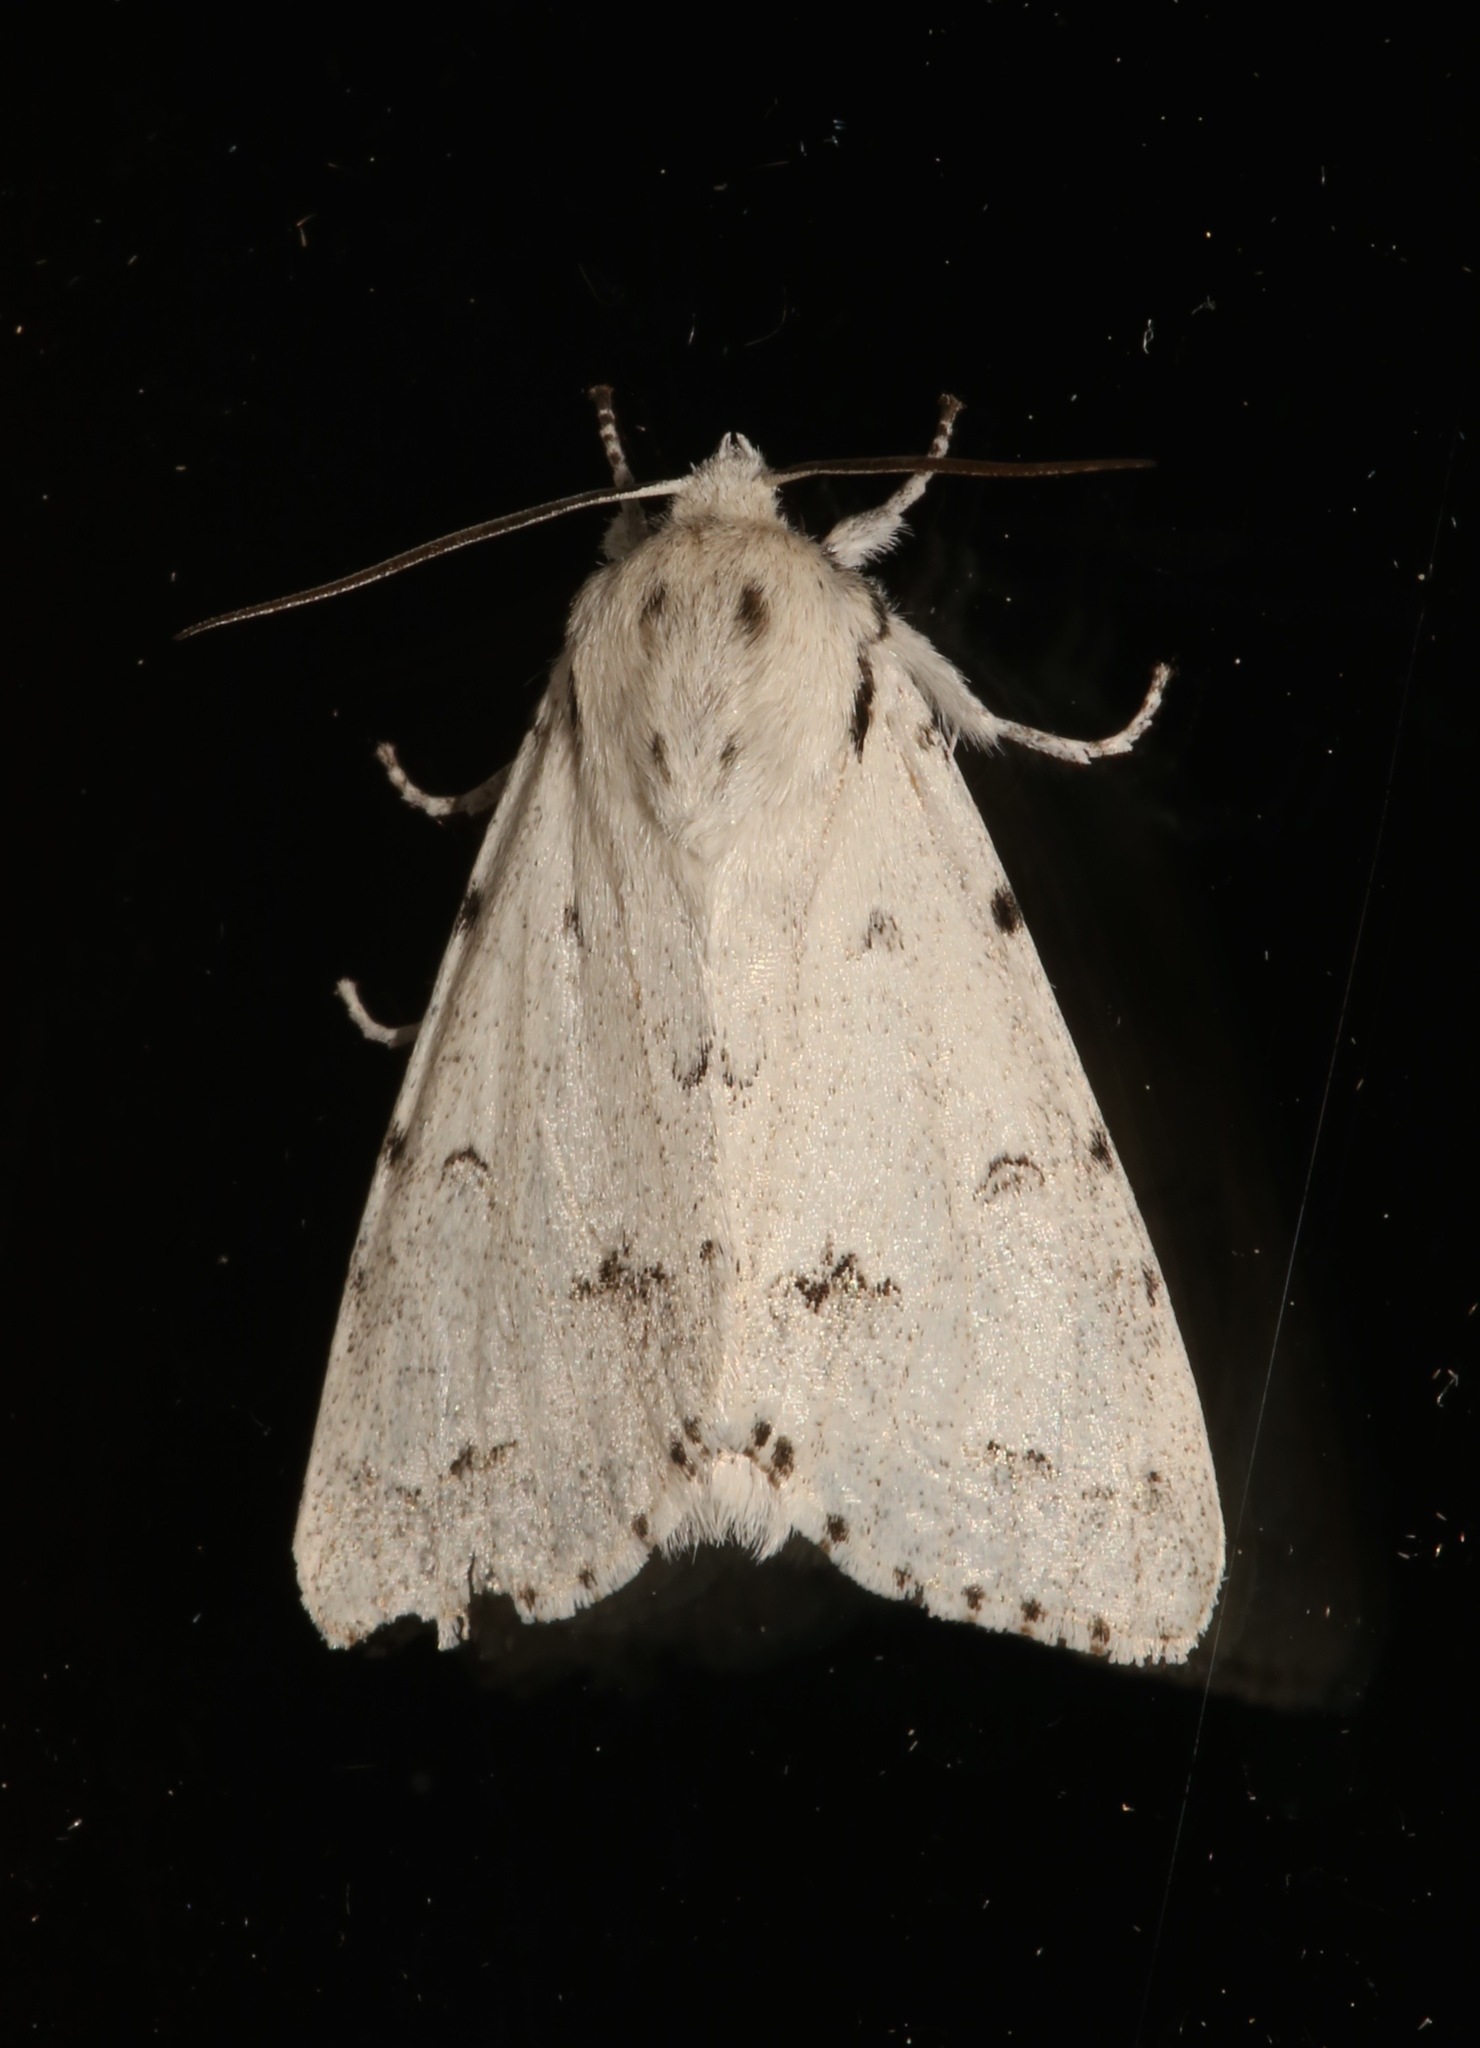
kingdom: Animalia
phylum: Arthropoda
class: Insecta
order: Lepidoptera
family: Noctuidae
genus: Acronicta
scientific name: Acronicta vulpina
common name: Miller dagger
